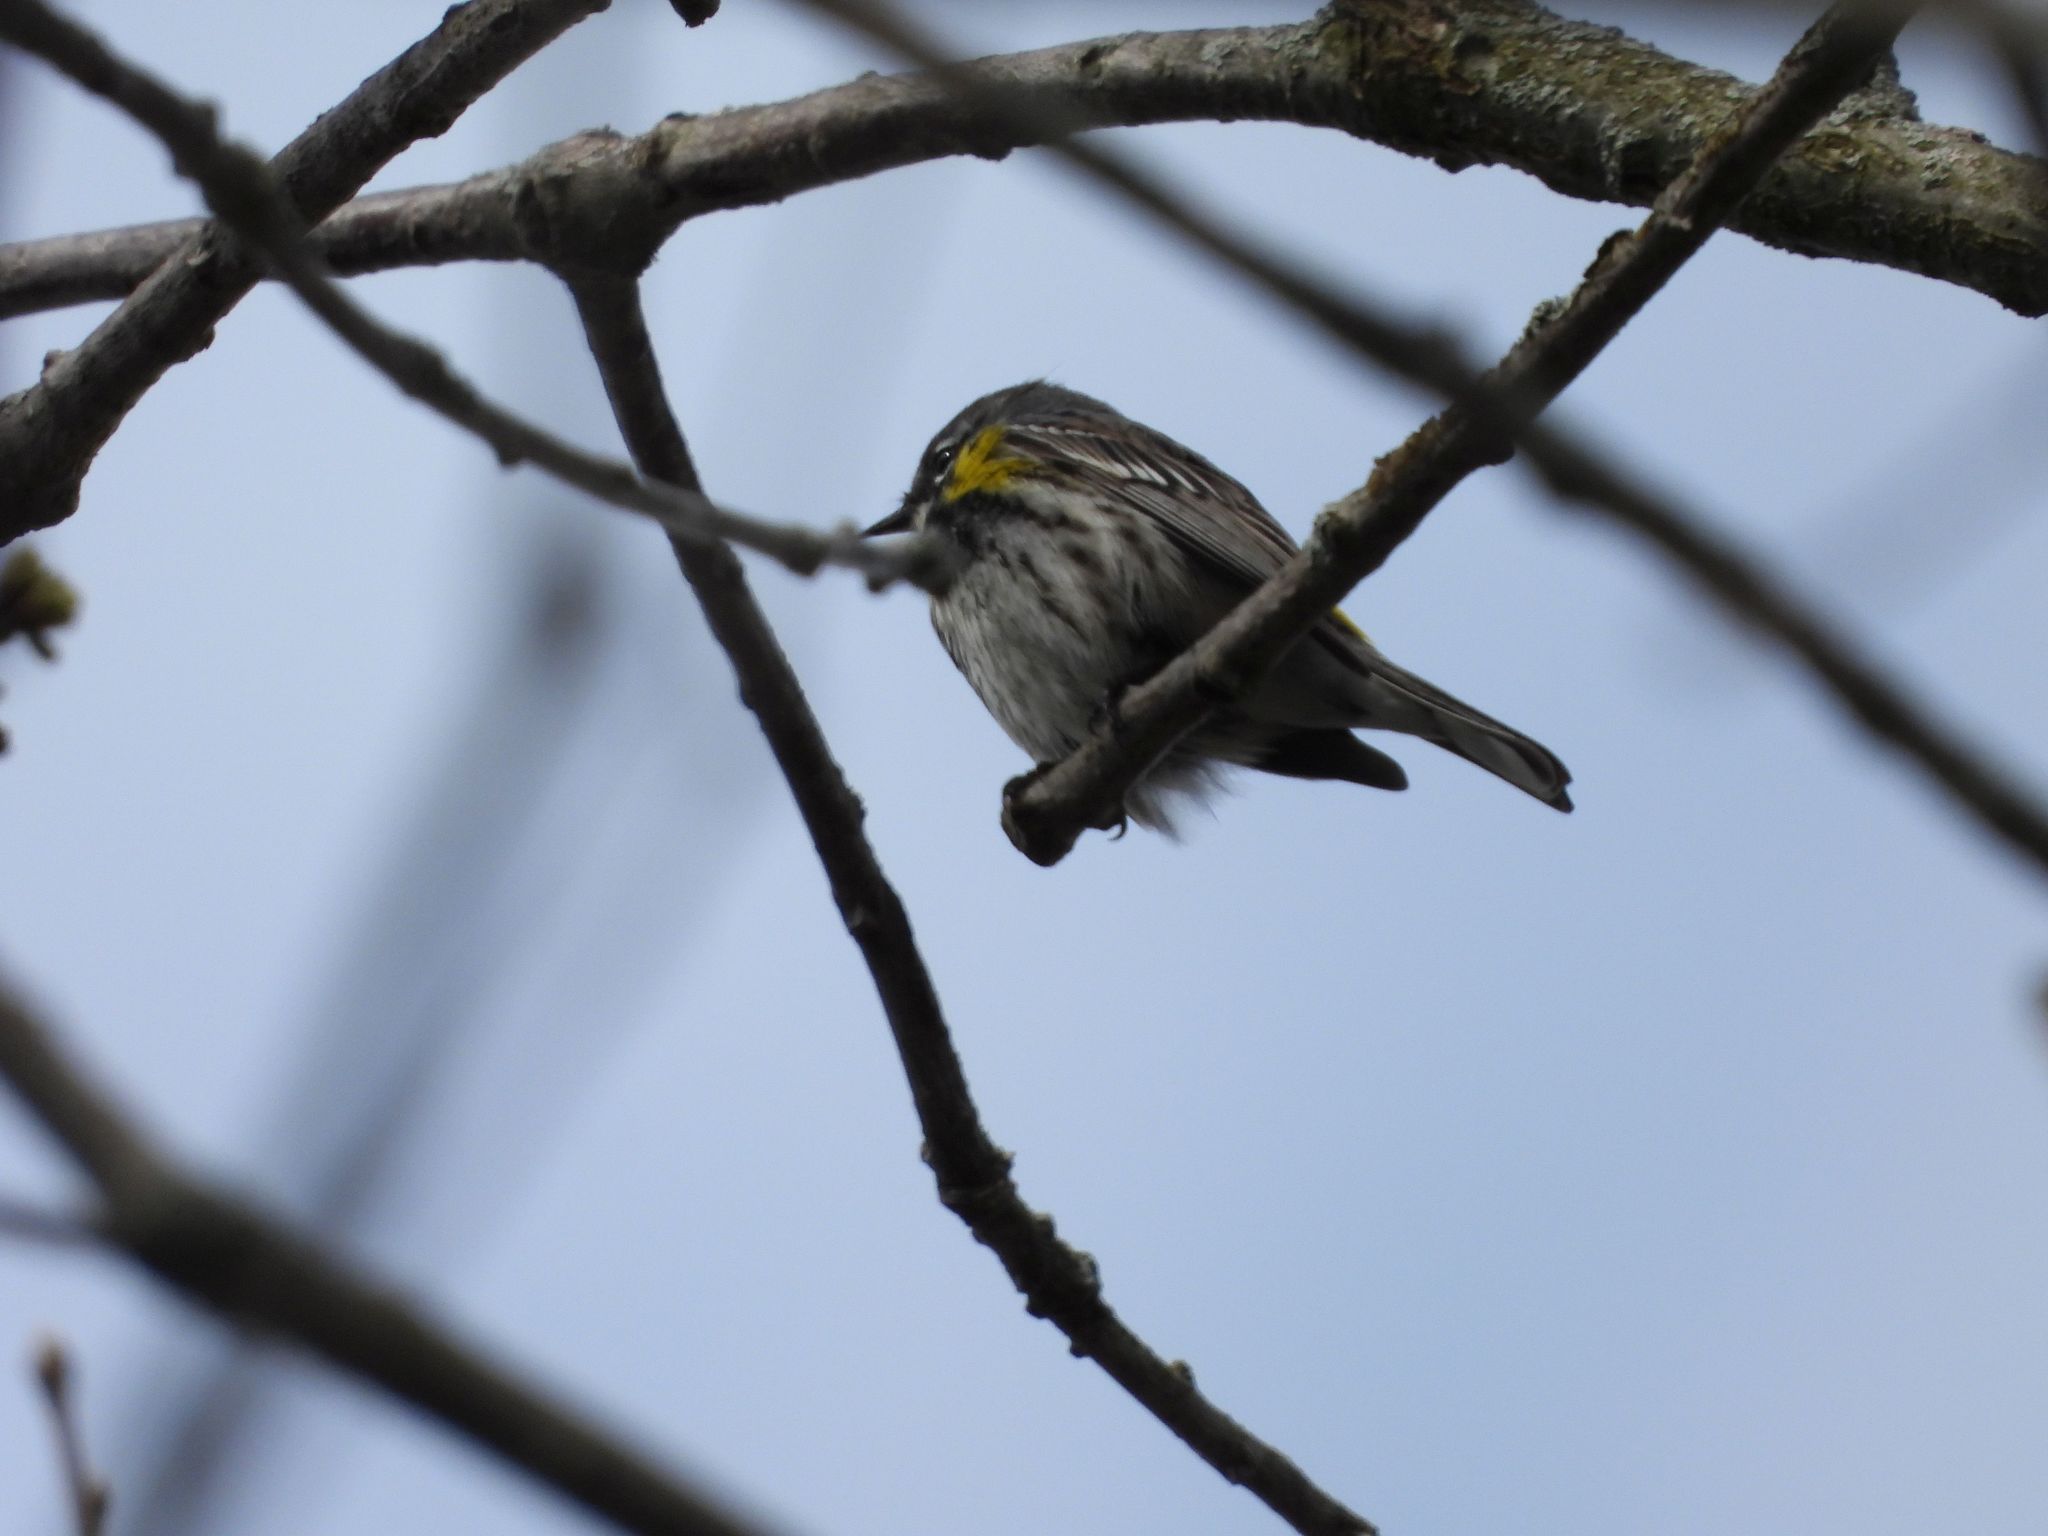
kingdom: Animalia
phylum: Chordata
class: Aves
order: Passeriformes
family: Parulidae
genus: Setophaga
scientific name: Setophaga coronata
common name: Myrtle warbler
